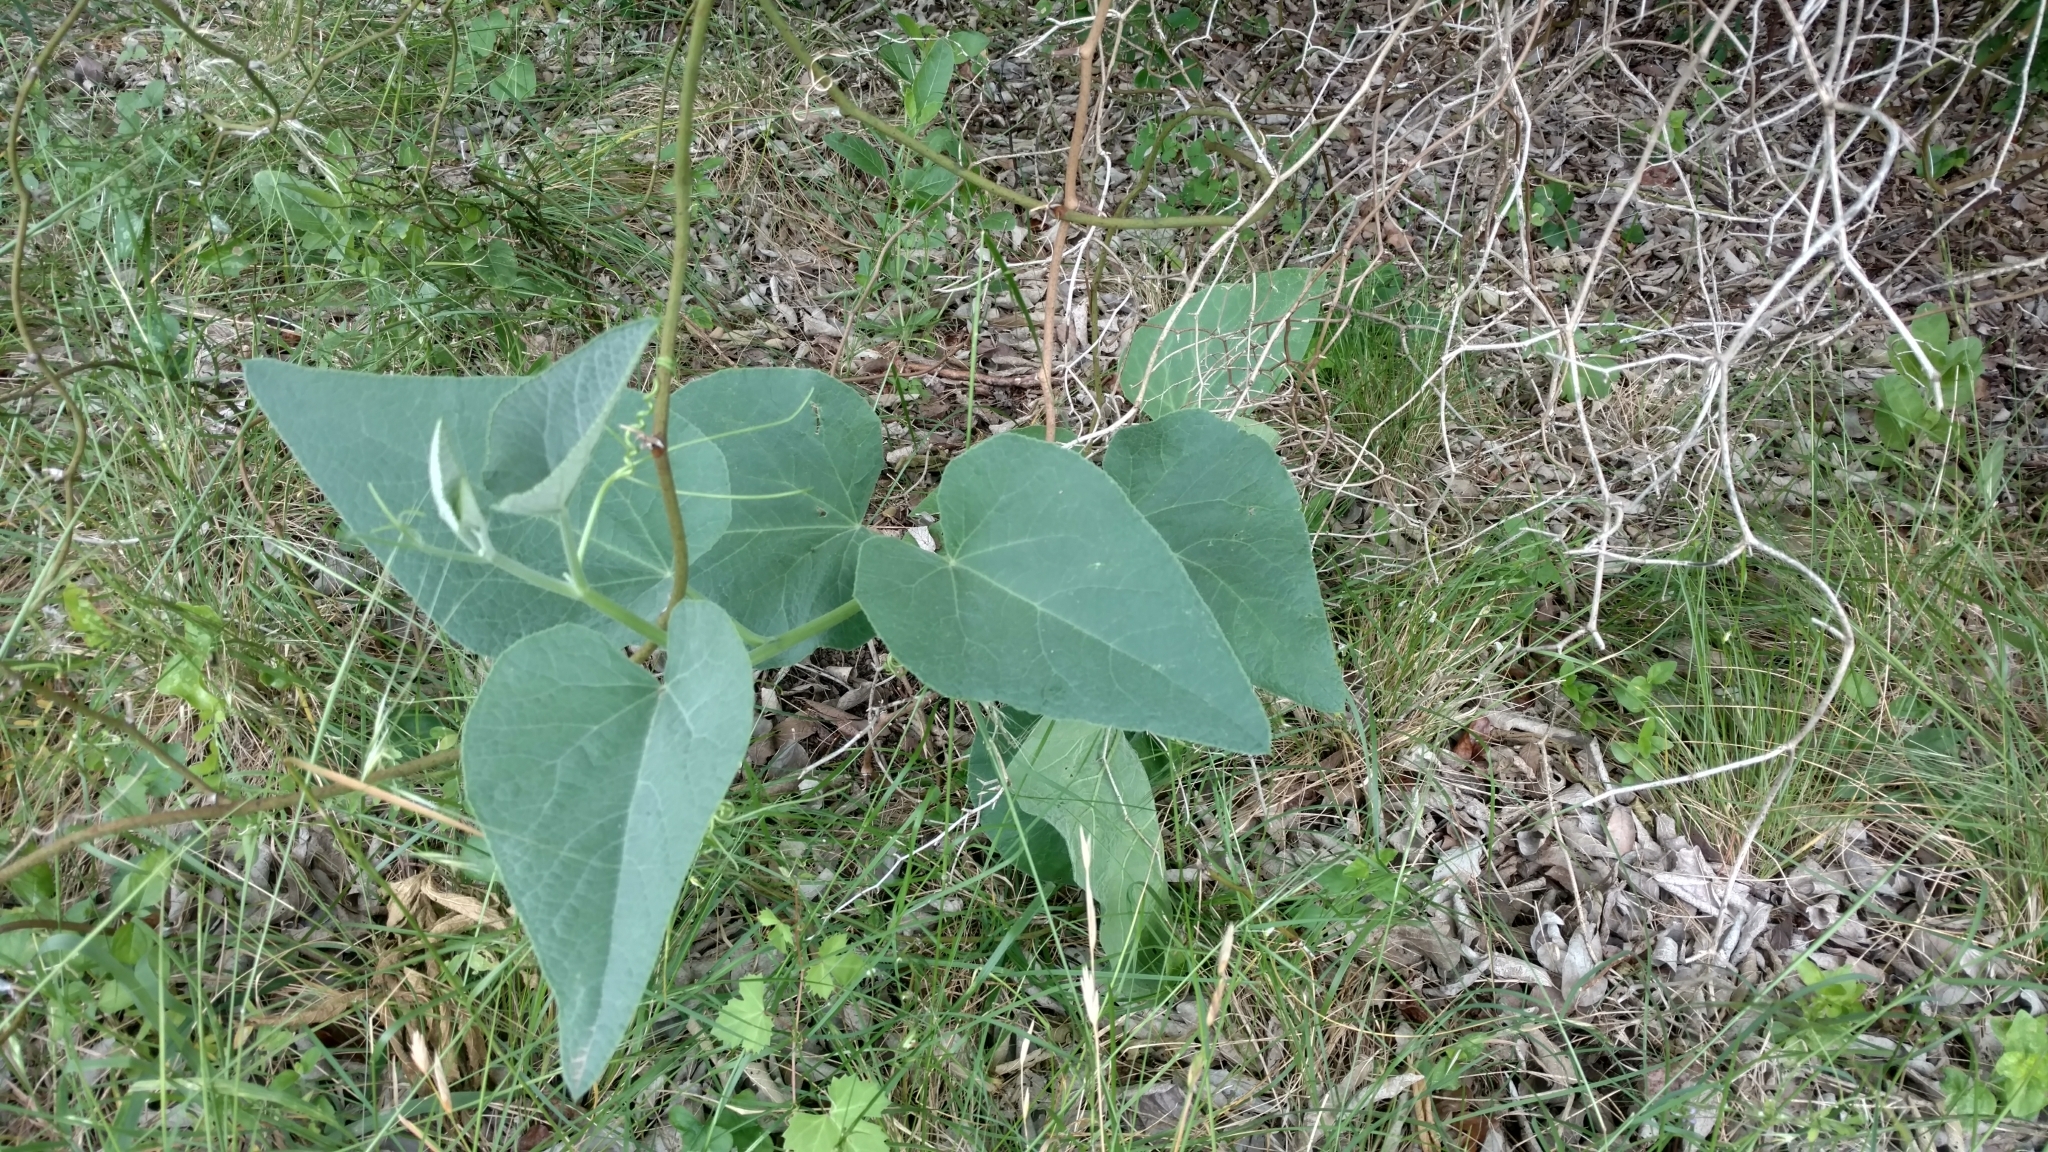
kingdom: Plantae
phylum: Tracheophyta
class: Magnoliopsida
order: Cucurbitales
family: Cucurbitaceae
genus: Cucurbita
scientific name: Cucurbita foetidissima
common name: Buffalo gourd
